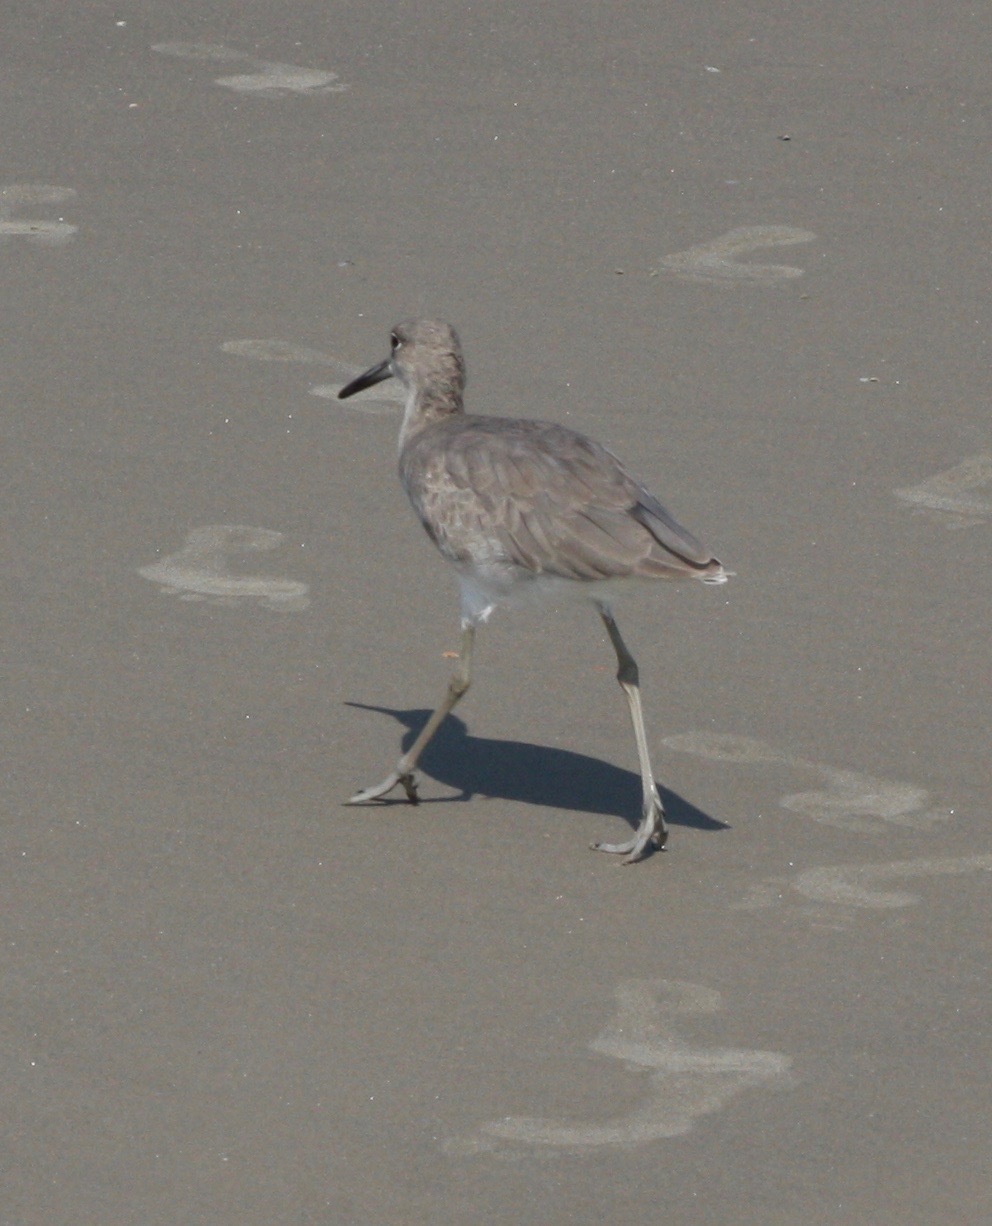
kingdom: Animalia
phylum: Chordata
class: Aves
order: Charadriiformes
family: Scolopacidae
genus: Tringa
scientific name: Tringa semipalmata
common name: Willet
